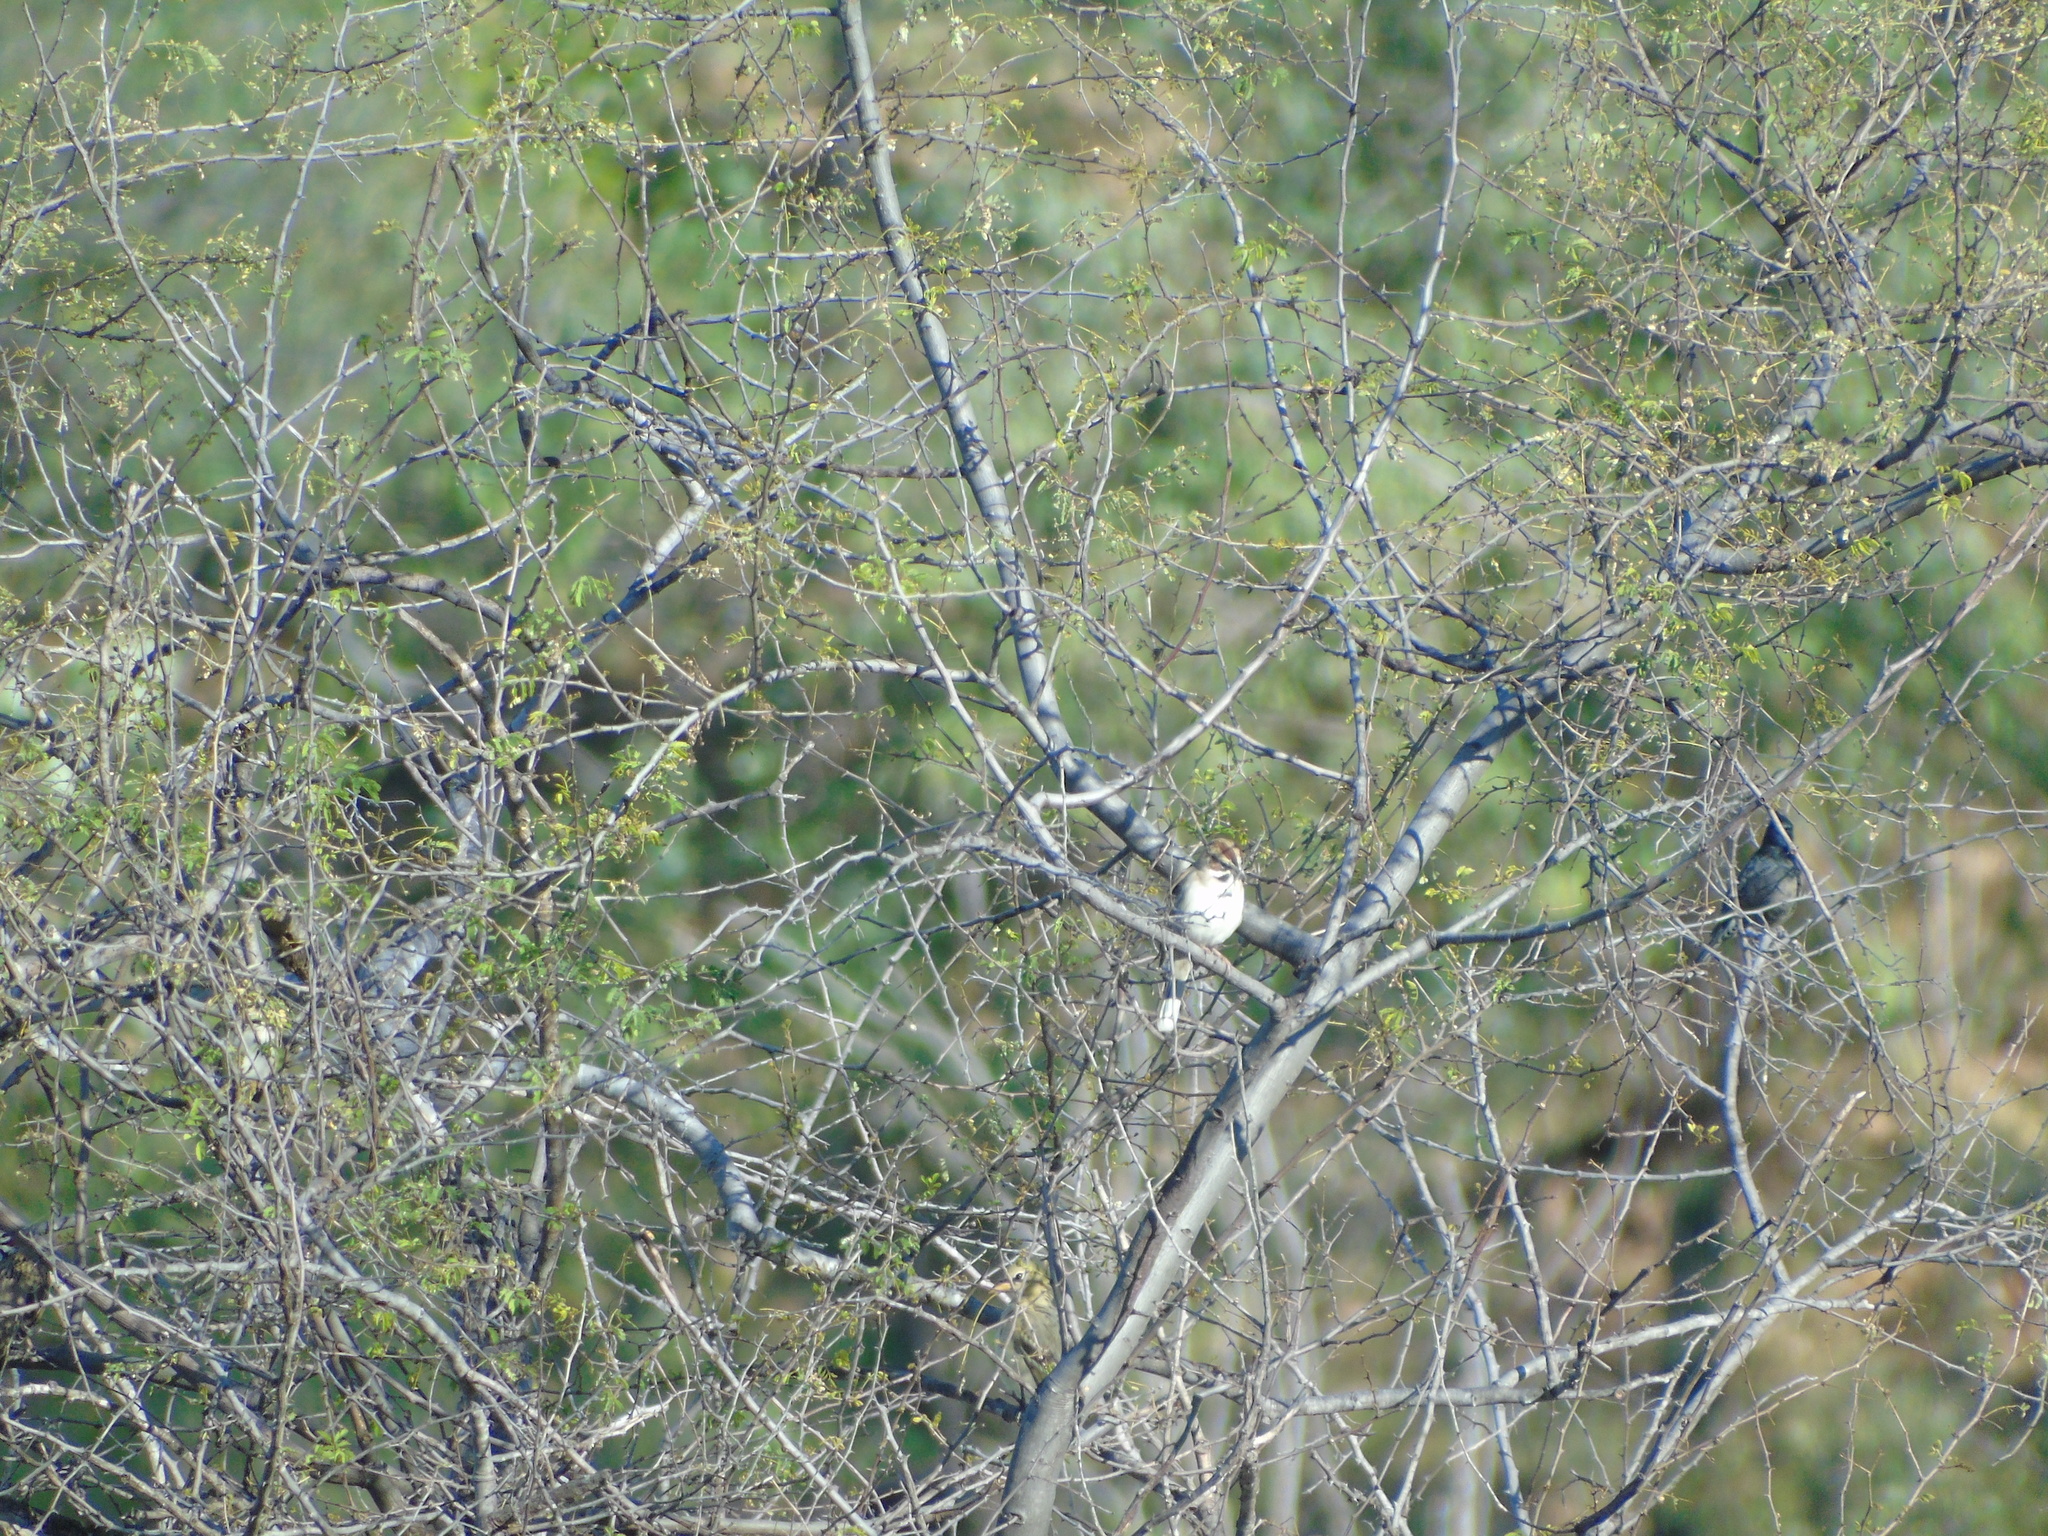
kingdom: Animalia
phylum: Chordata
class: Aves
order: Passeriformes
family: Passerellidae
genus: Chondestes
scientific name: Chondestes grammacus
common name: Lark sparrow
